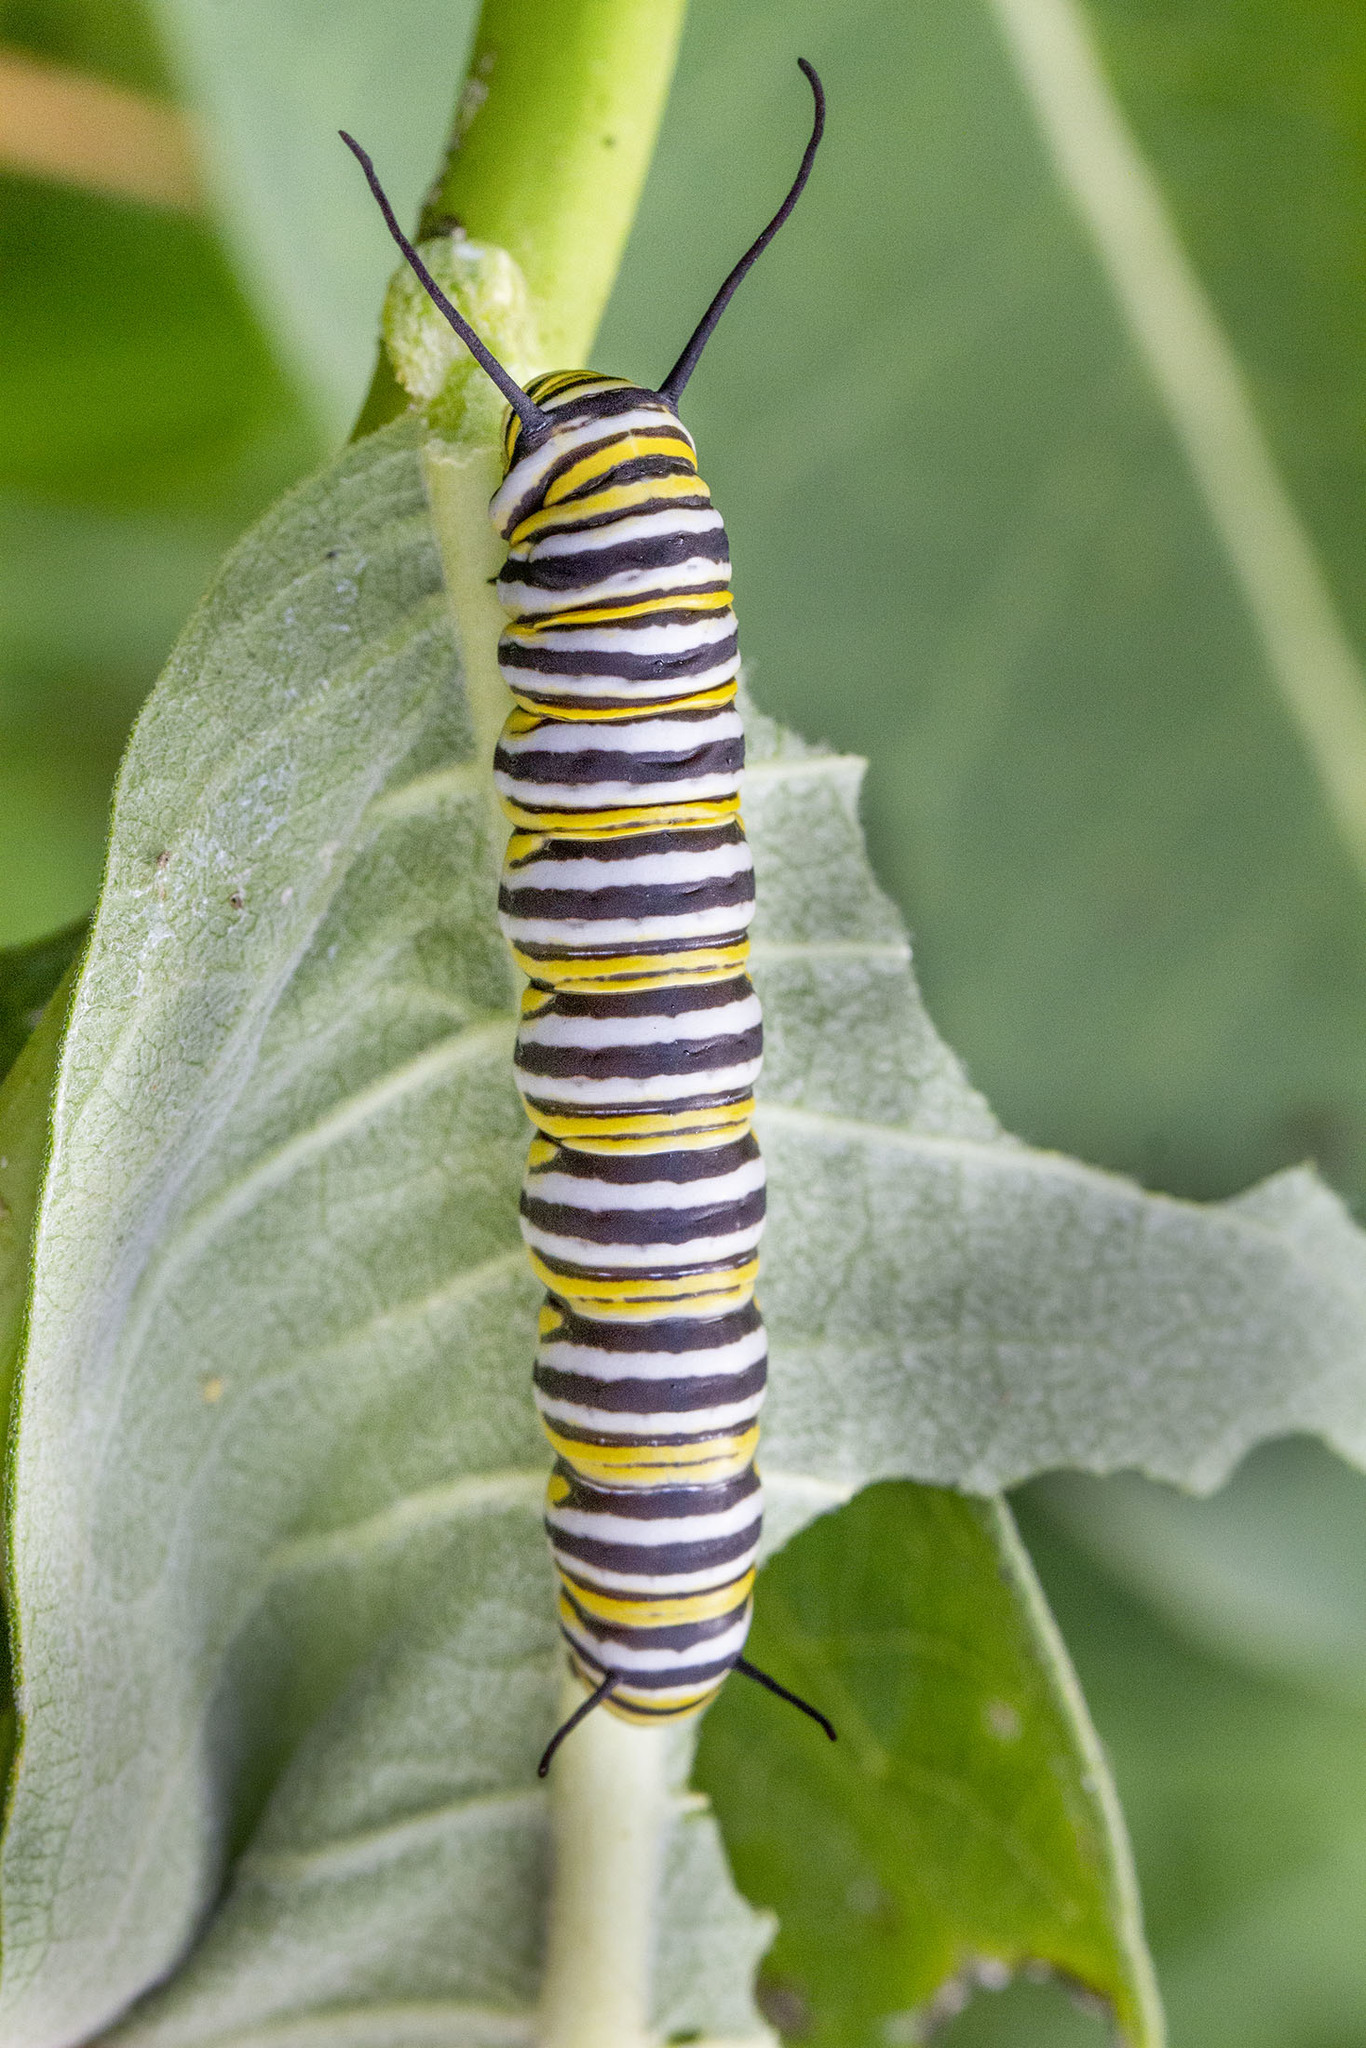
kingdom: Animalia
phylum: Arthropoda
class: Insecta
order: Lepidoptera
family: Nymphalidae
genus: Danaus
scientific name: Danaus plexippus
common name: Monarch
